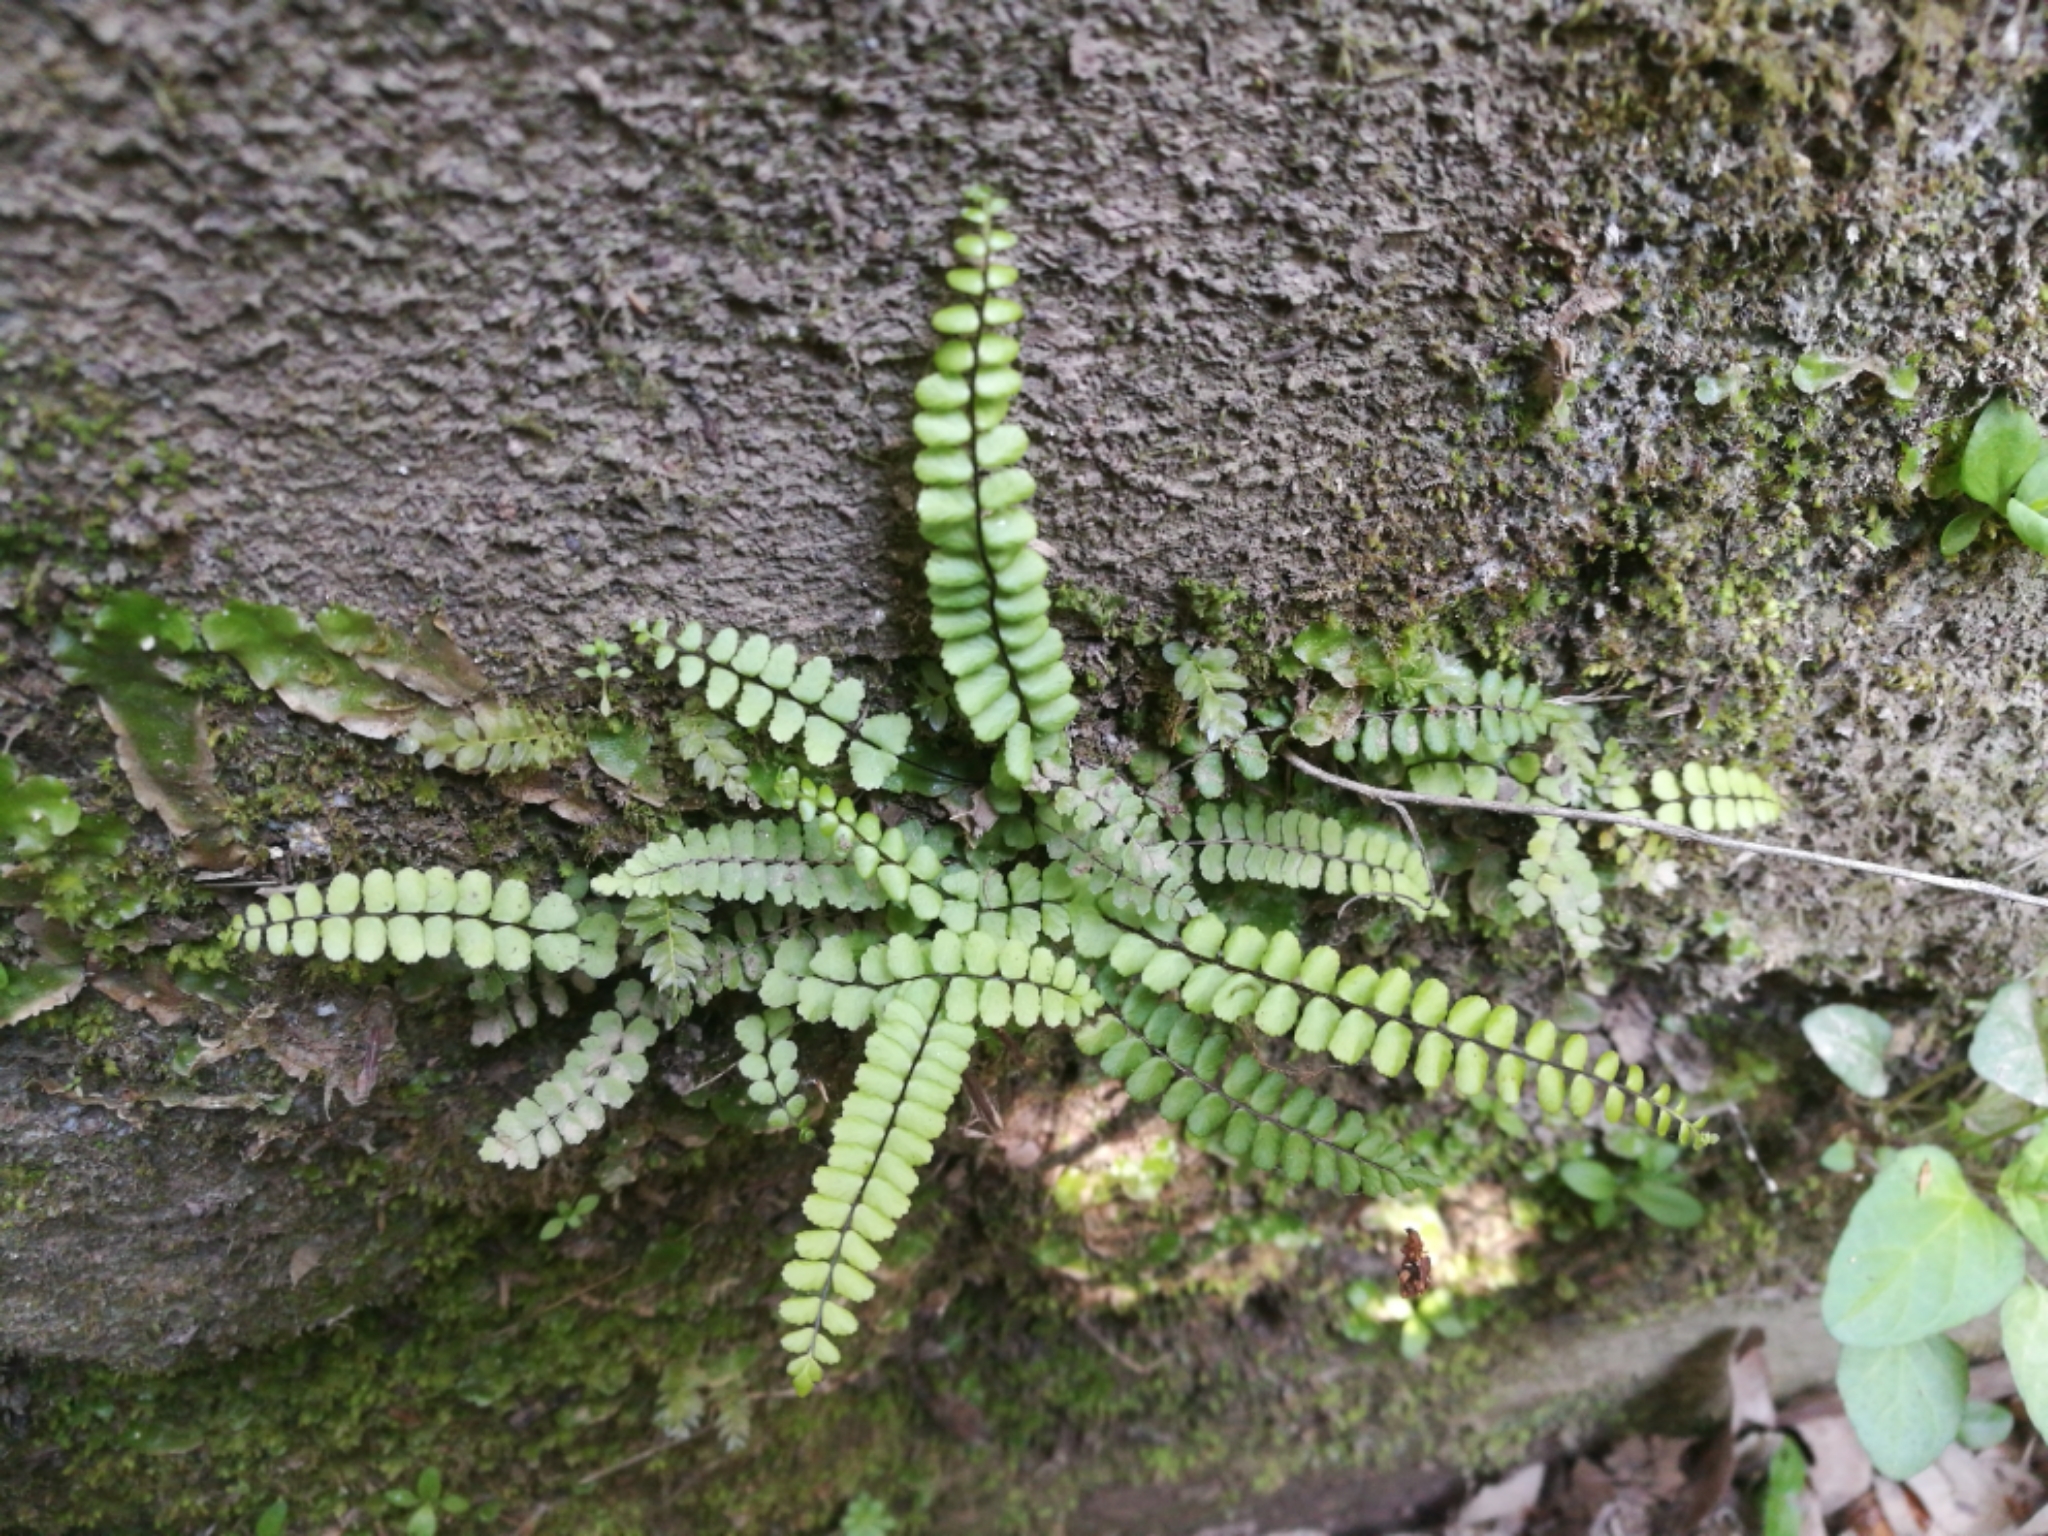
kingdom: Plantae
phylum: Tracheophyta
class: Polypodiopsida
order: Polypodiales
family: Aspleniaceae
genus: Asplenium
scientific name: Asplenium trichomanes
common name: Maidenhair spleenwort
